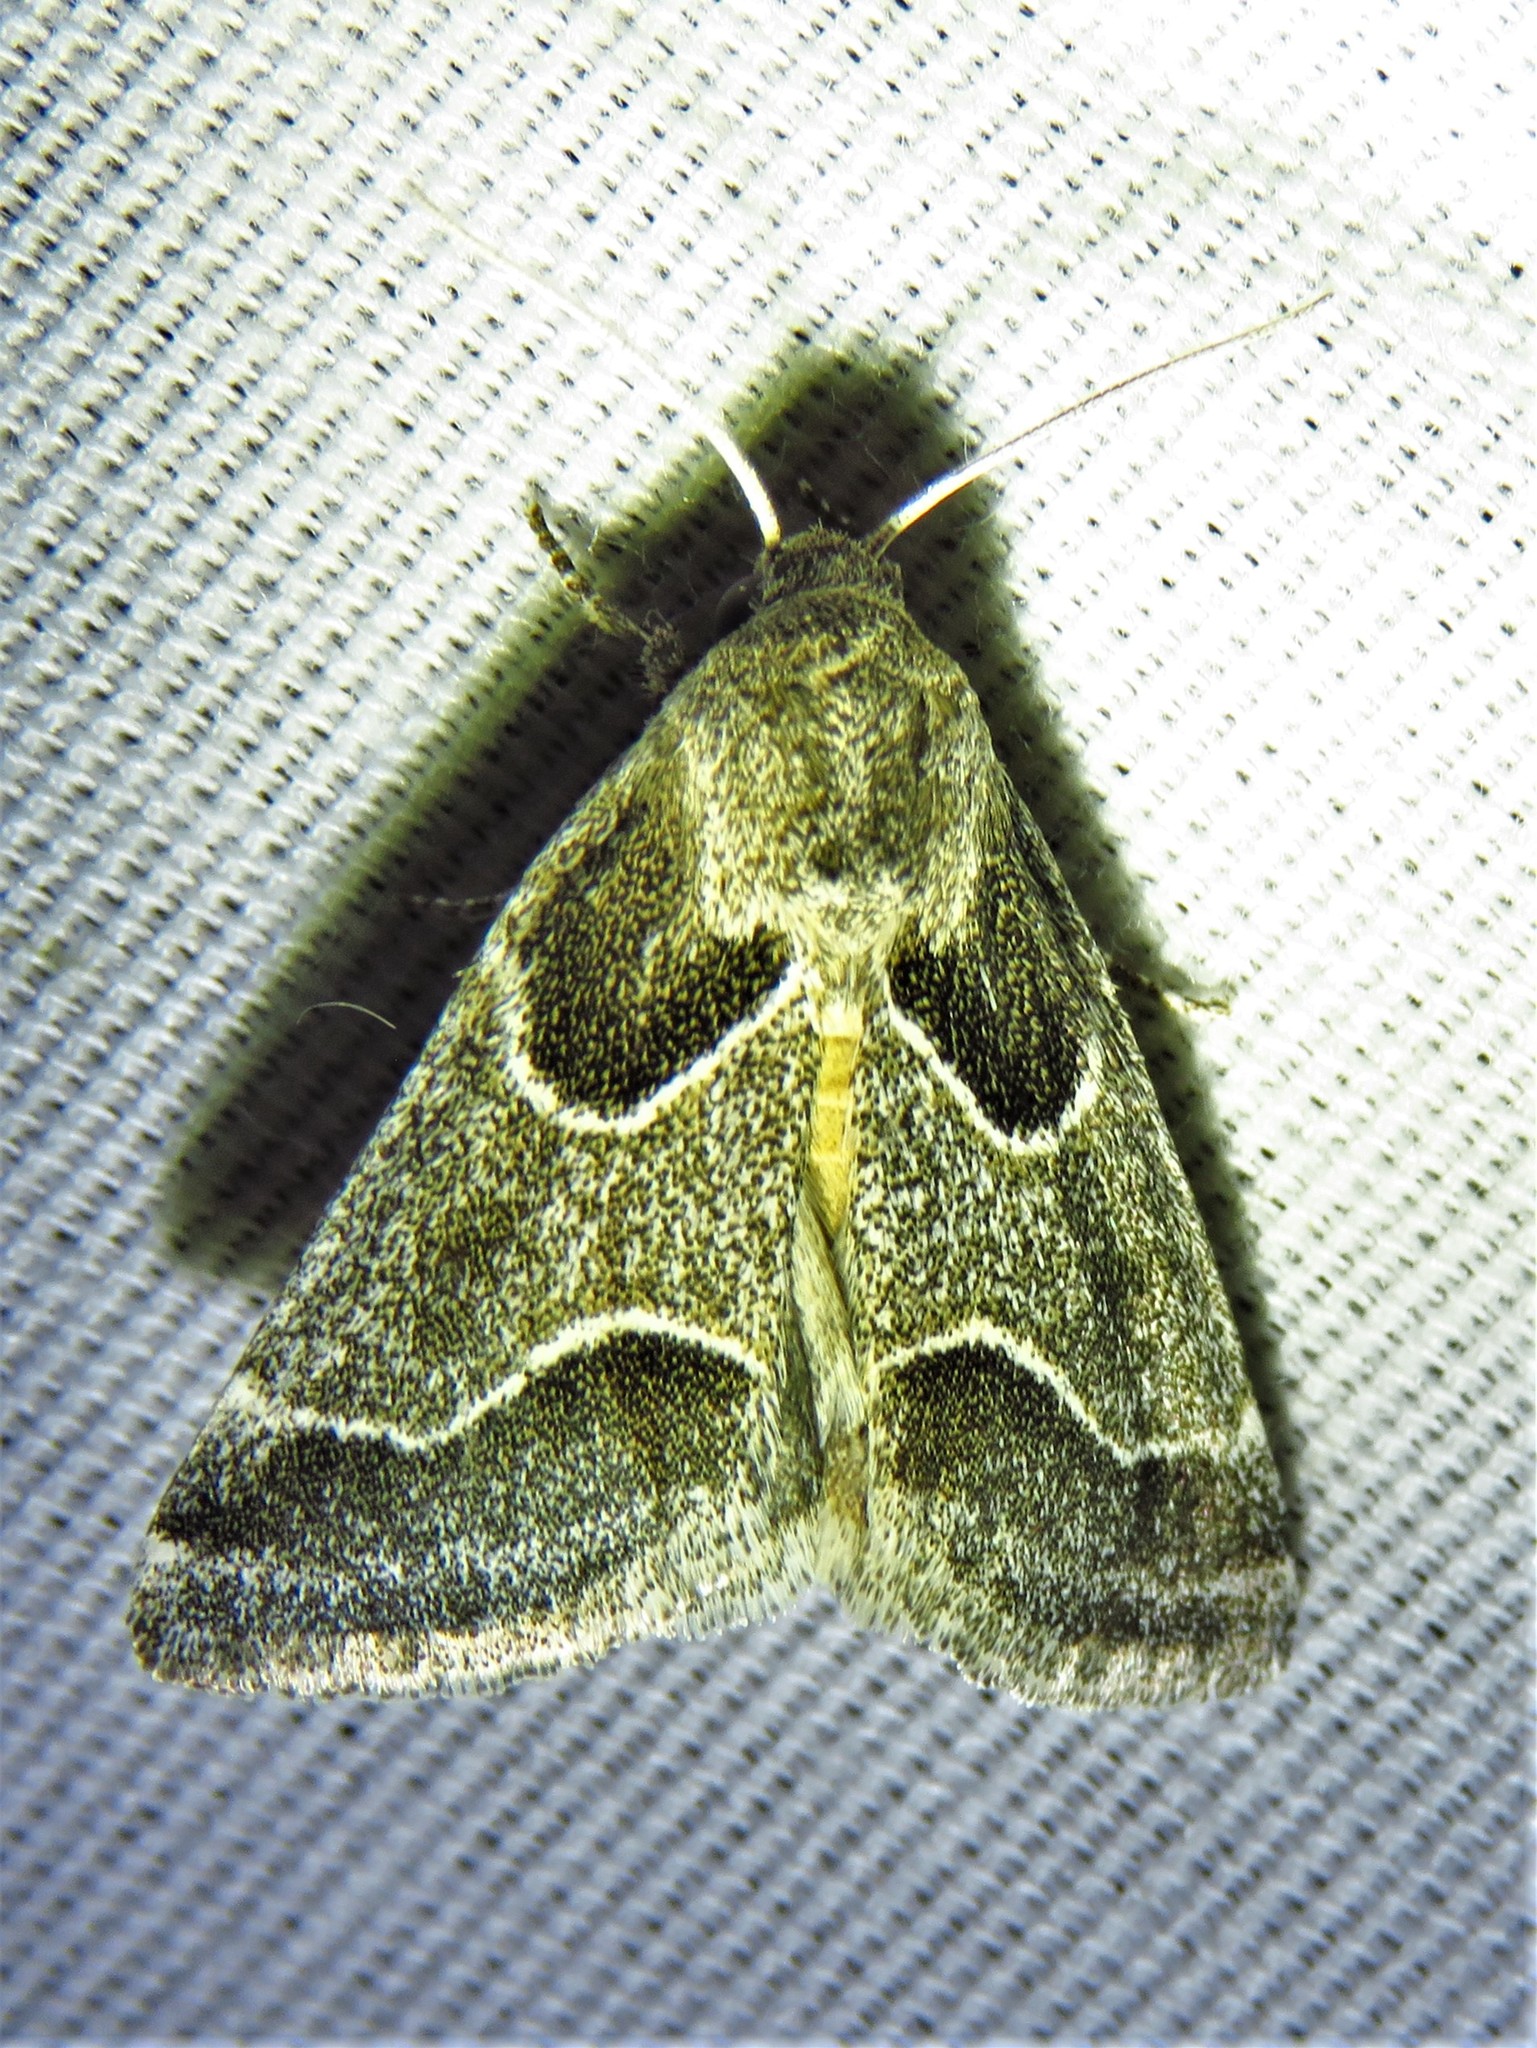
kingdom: Animalia
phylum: Arthropoda
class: Insecta
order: Lepidoptera
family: Noctuidae
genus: Schinia
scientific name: Schinia rivulosa
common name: Scarce meal-moth
